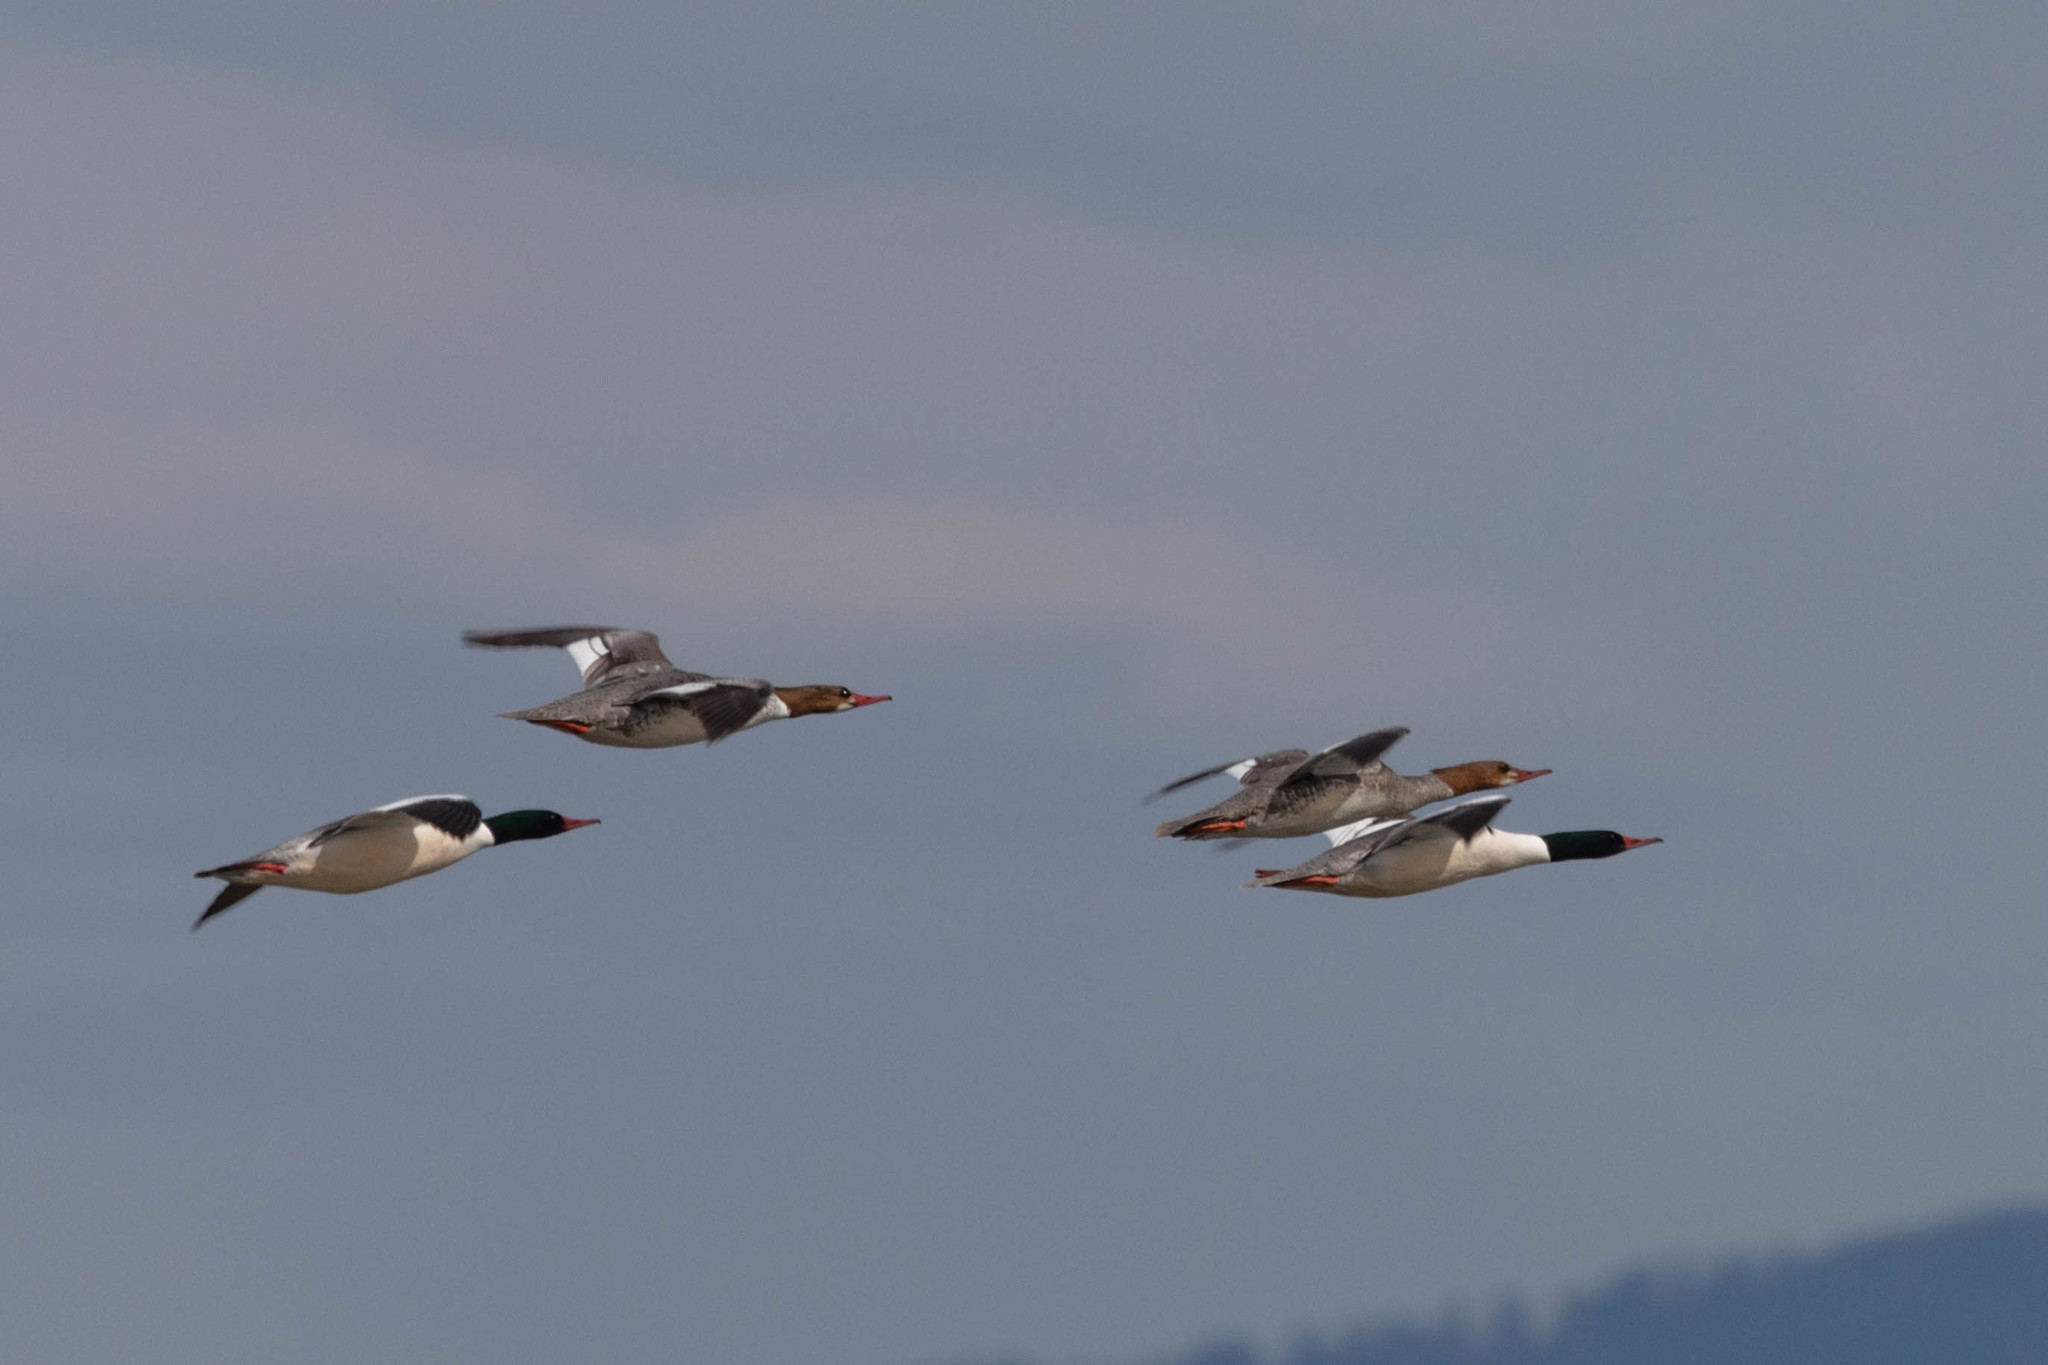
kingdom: Animalia
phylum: Chordata
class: Aves
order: Anseriformes
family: Anatidae
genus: Mergus
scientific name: Mergus merganser
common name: Common merganser
